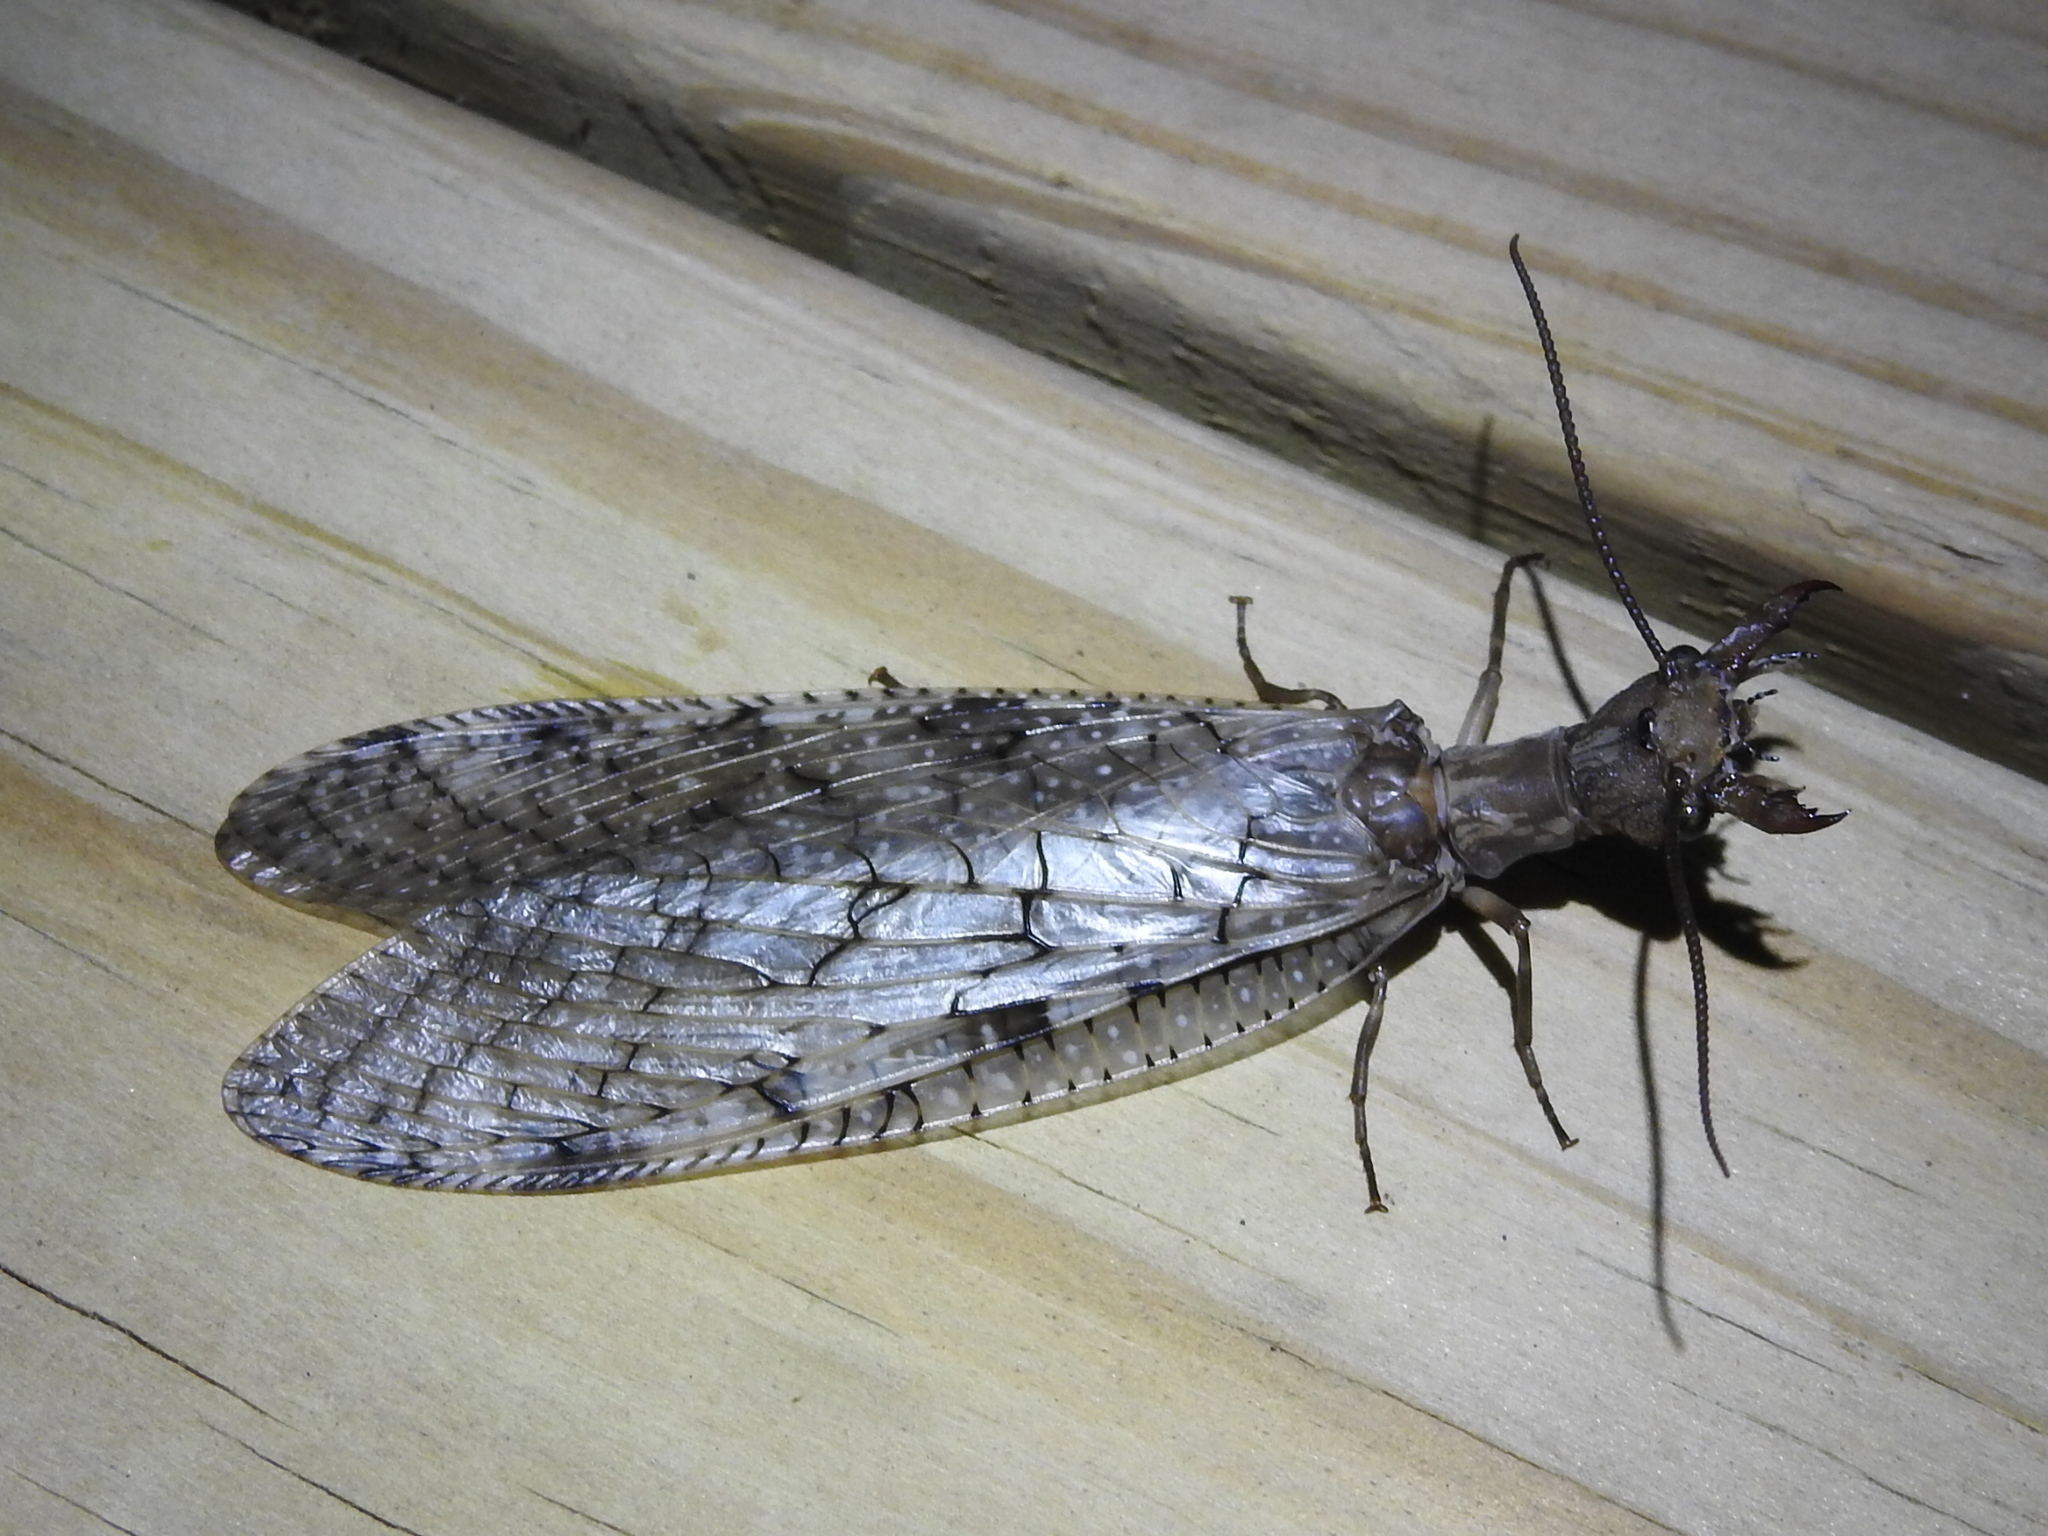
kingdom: Animalia
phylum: Arthropoda
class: Insecta
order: Megaloptera
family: Corydalidae
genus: Corydalus
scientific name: Corydalus cornutus
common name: Dobsonfly
